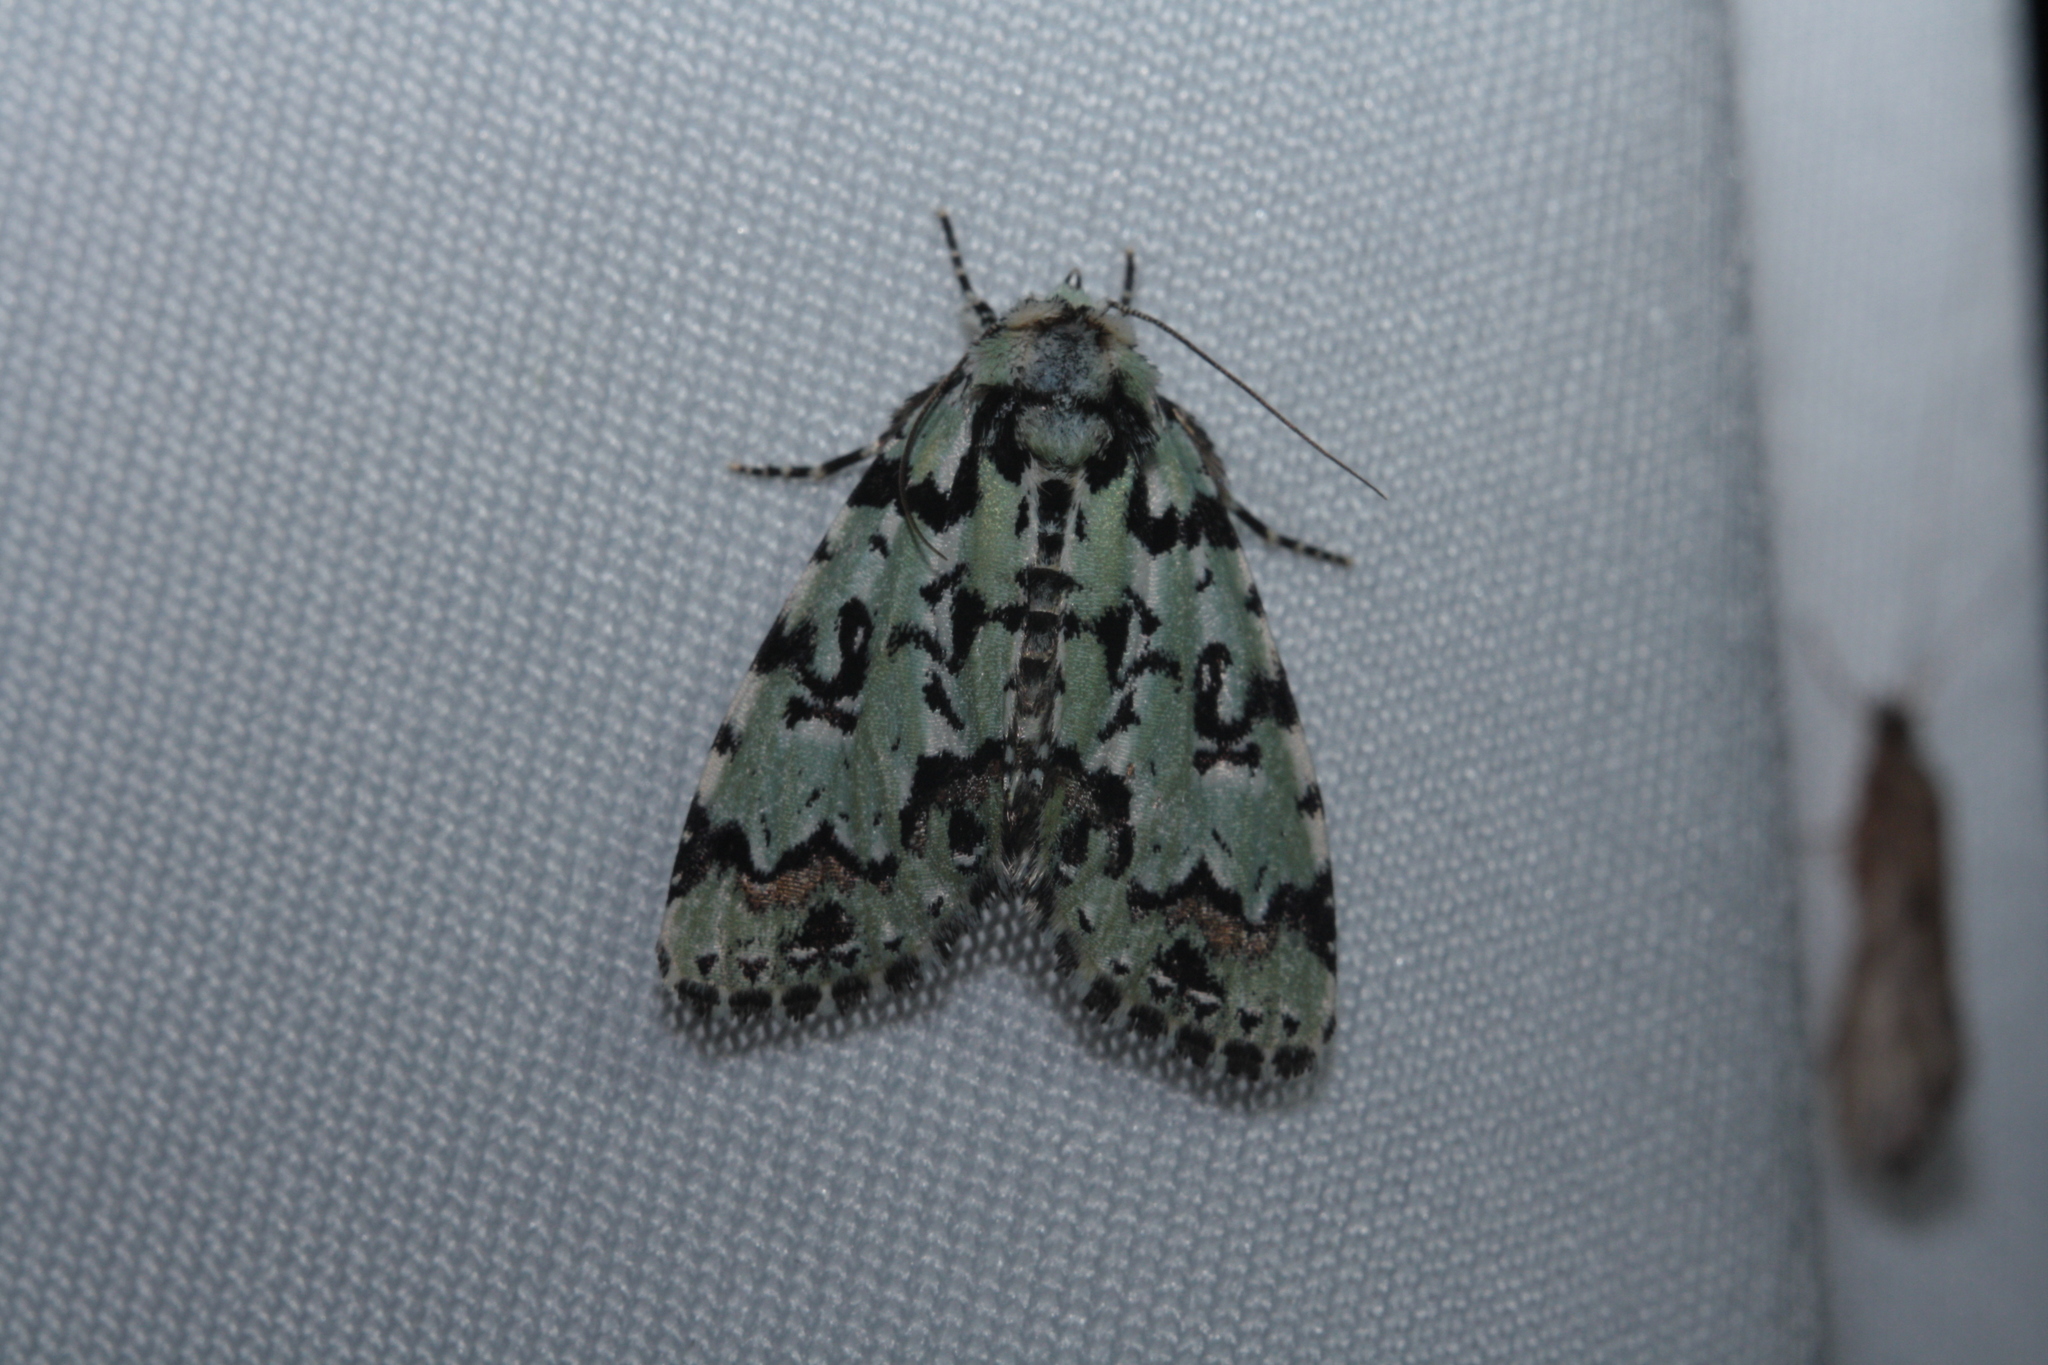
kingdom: Animalia
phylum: Arthropoda
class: Insecta
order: Lepidoptera
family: Noctuidae
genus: Moma
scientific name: Moma alpium
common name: Scarce merveille du jour
